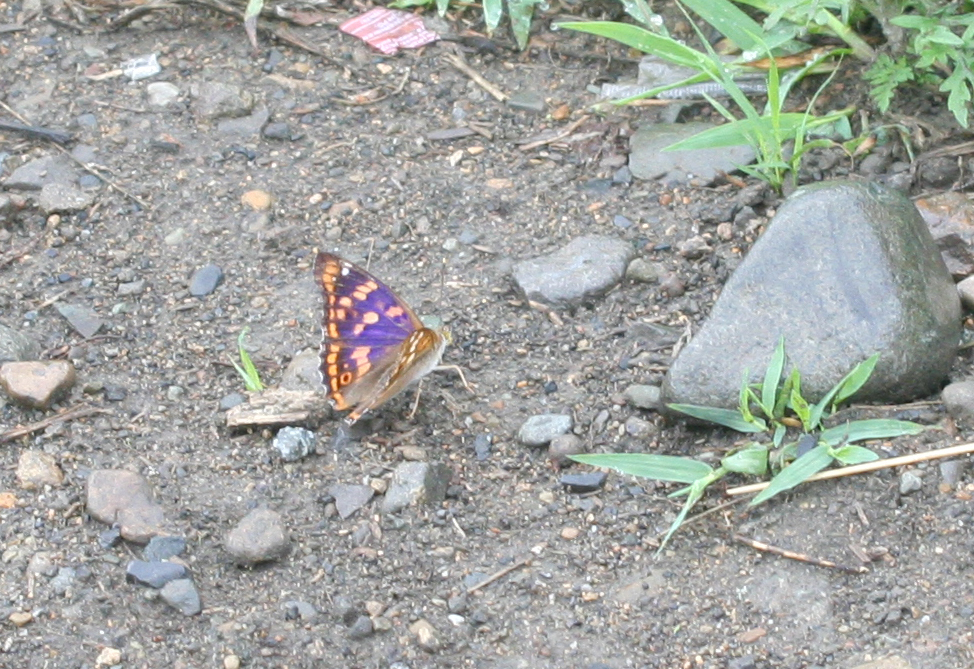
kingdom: Animalia
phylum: Arthropoda
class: Insecta
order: Lepidoptera
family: Nymphalidae
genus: Apatura
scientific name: Apatura ilia
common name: Lesser purple emperor
